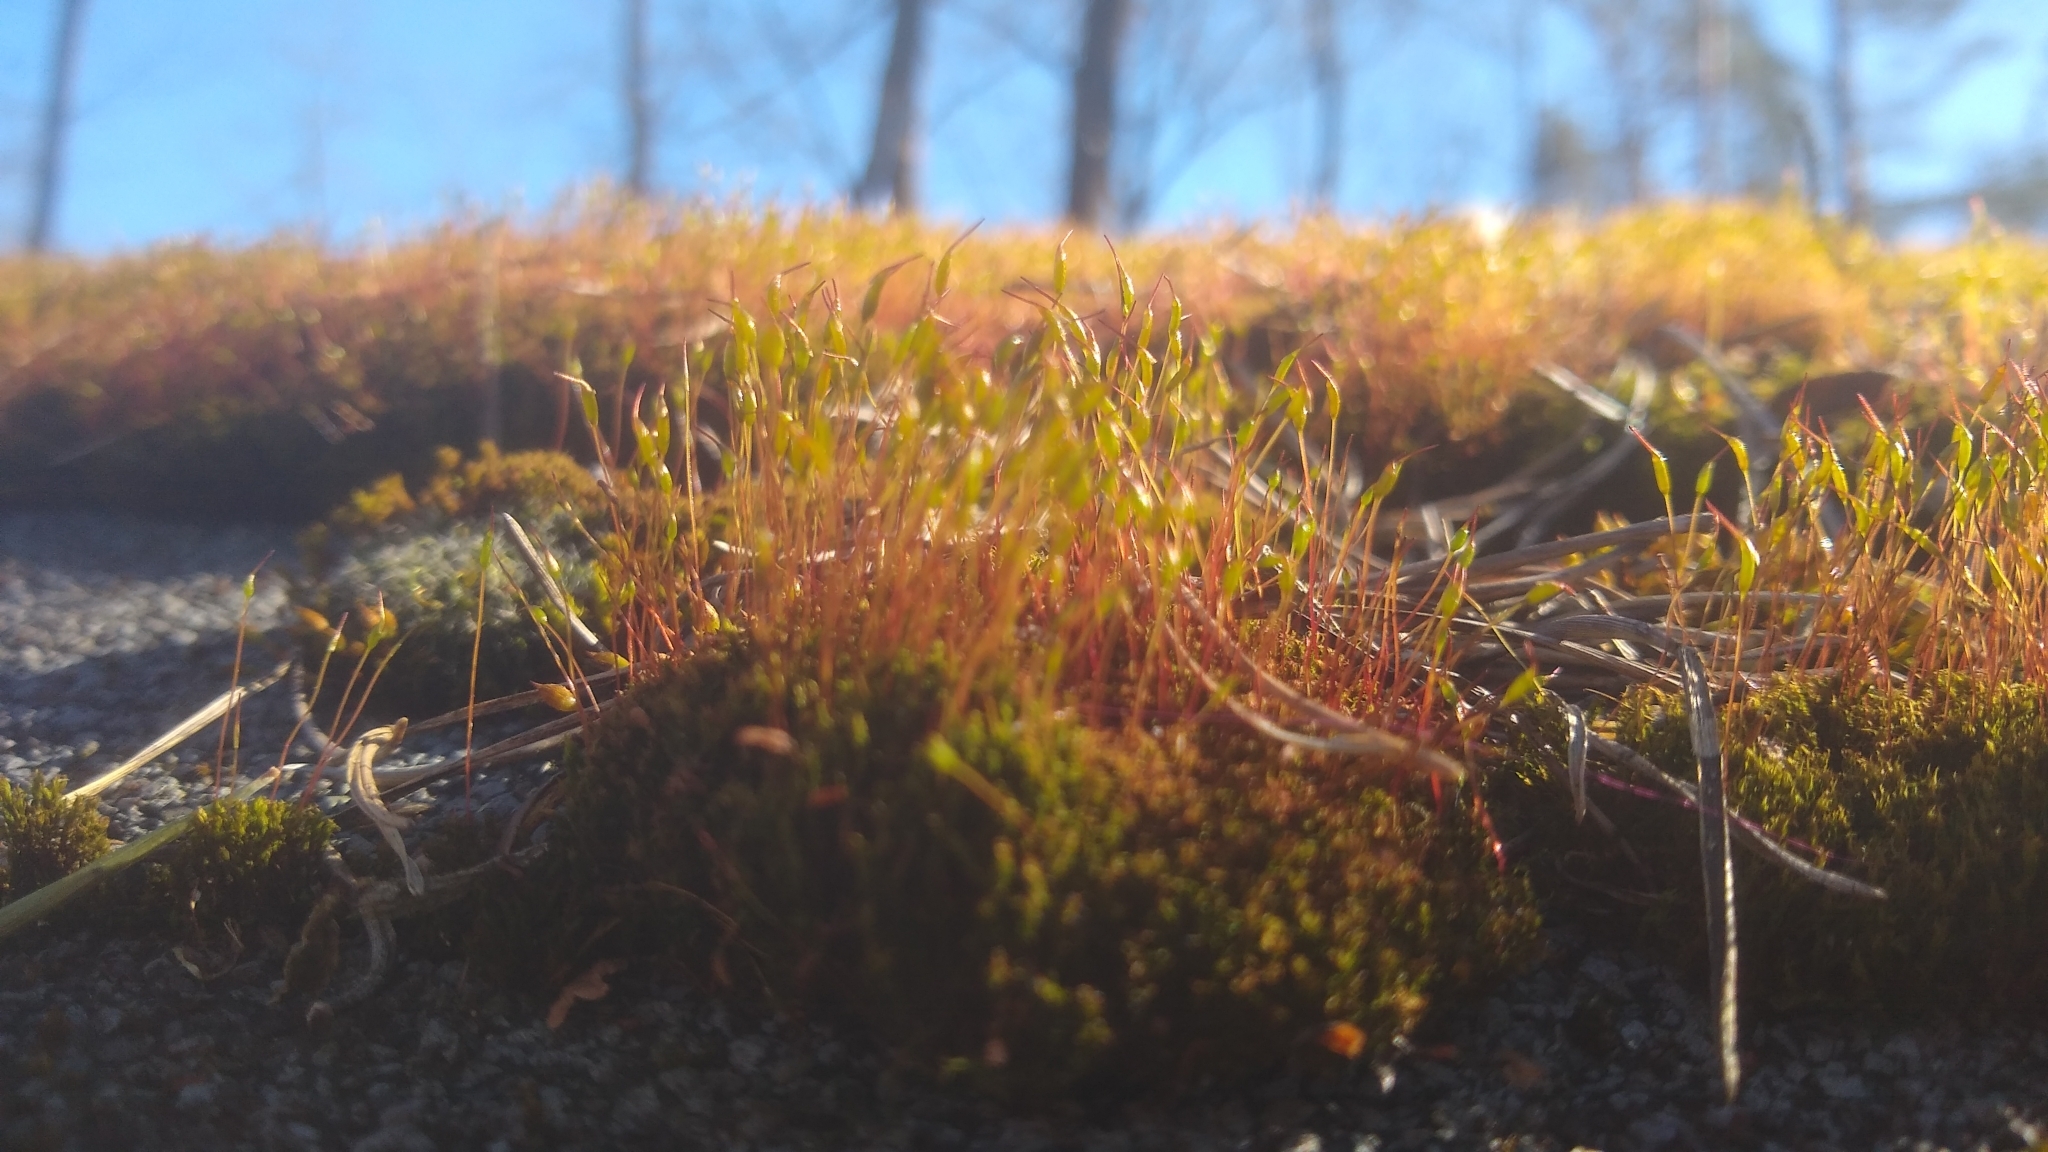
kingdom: Plantae
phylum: Bryophyta
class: Bryopsida
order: Dicranales
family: Ditrichaceae
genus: Ceratodon
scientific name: Ceratodon purpureus
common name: Redshank
